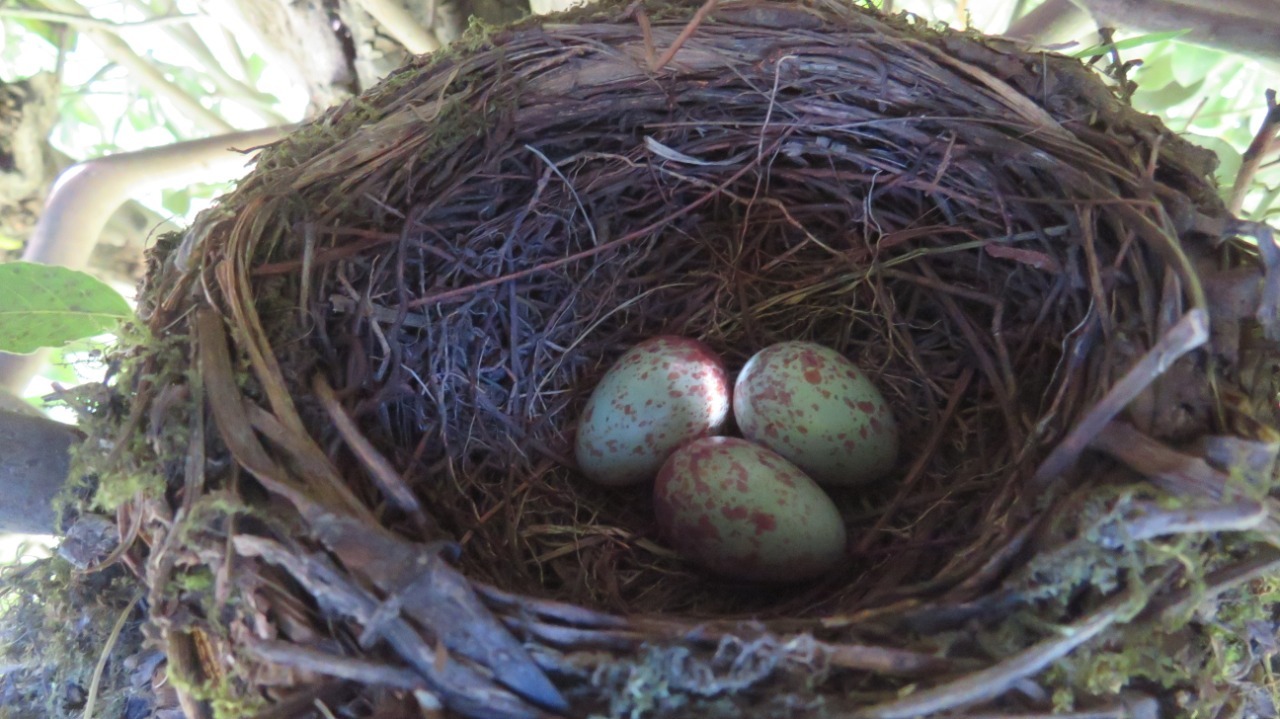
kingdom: Animalia
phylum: Chordata
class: Aves
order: Passeriformes
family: Turdidae
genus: Turdus
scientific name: Turdus rufiventris
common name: Rufous-bellied thrush
